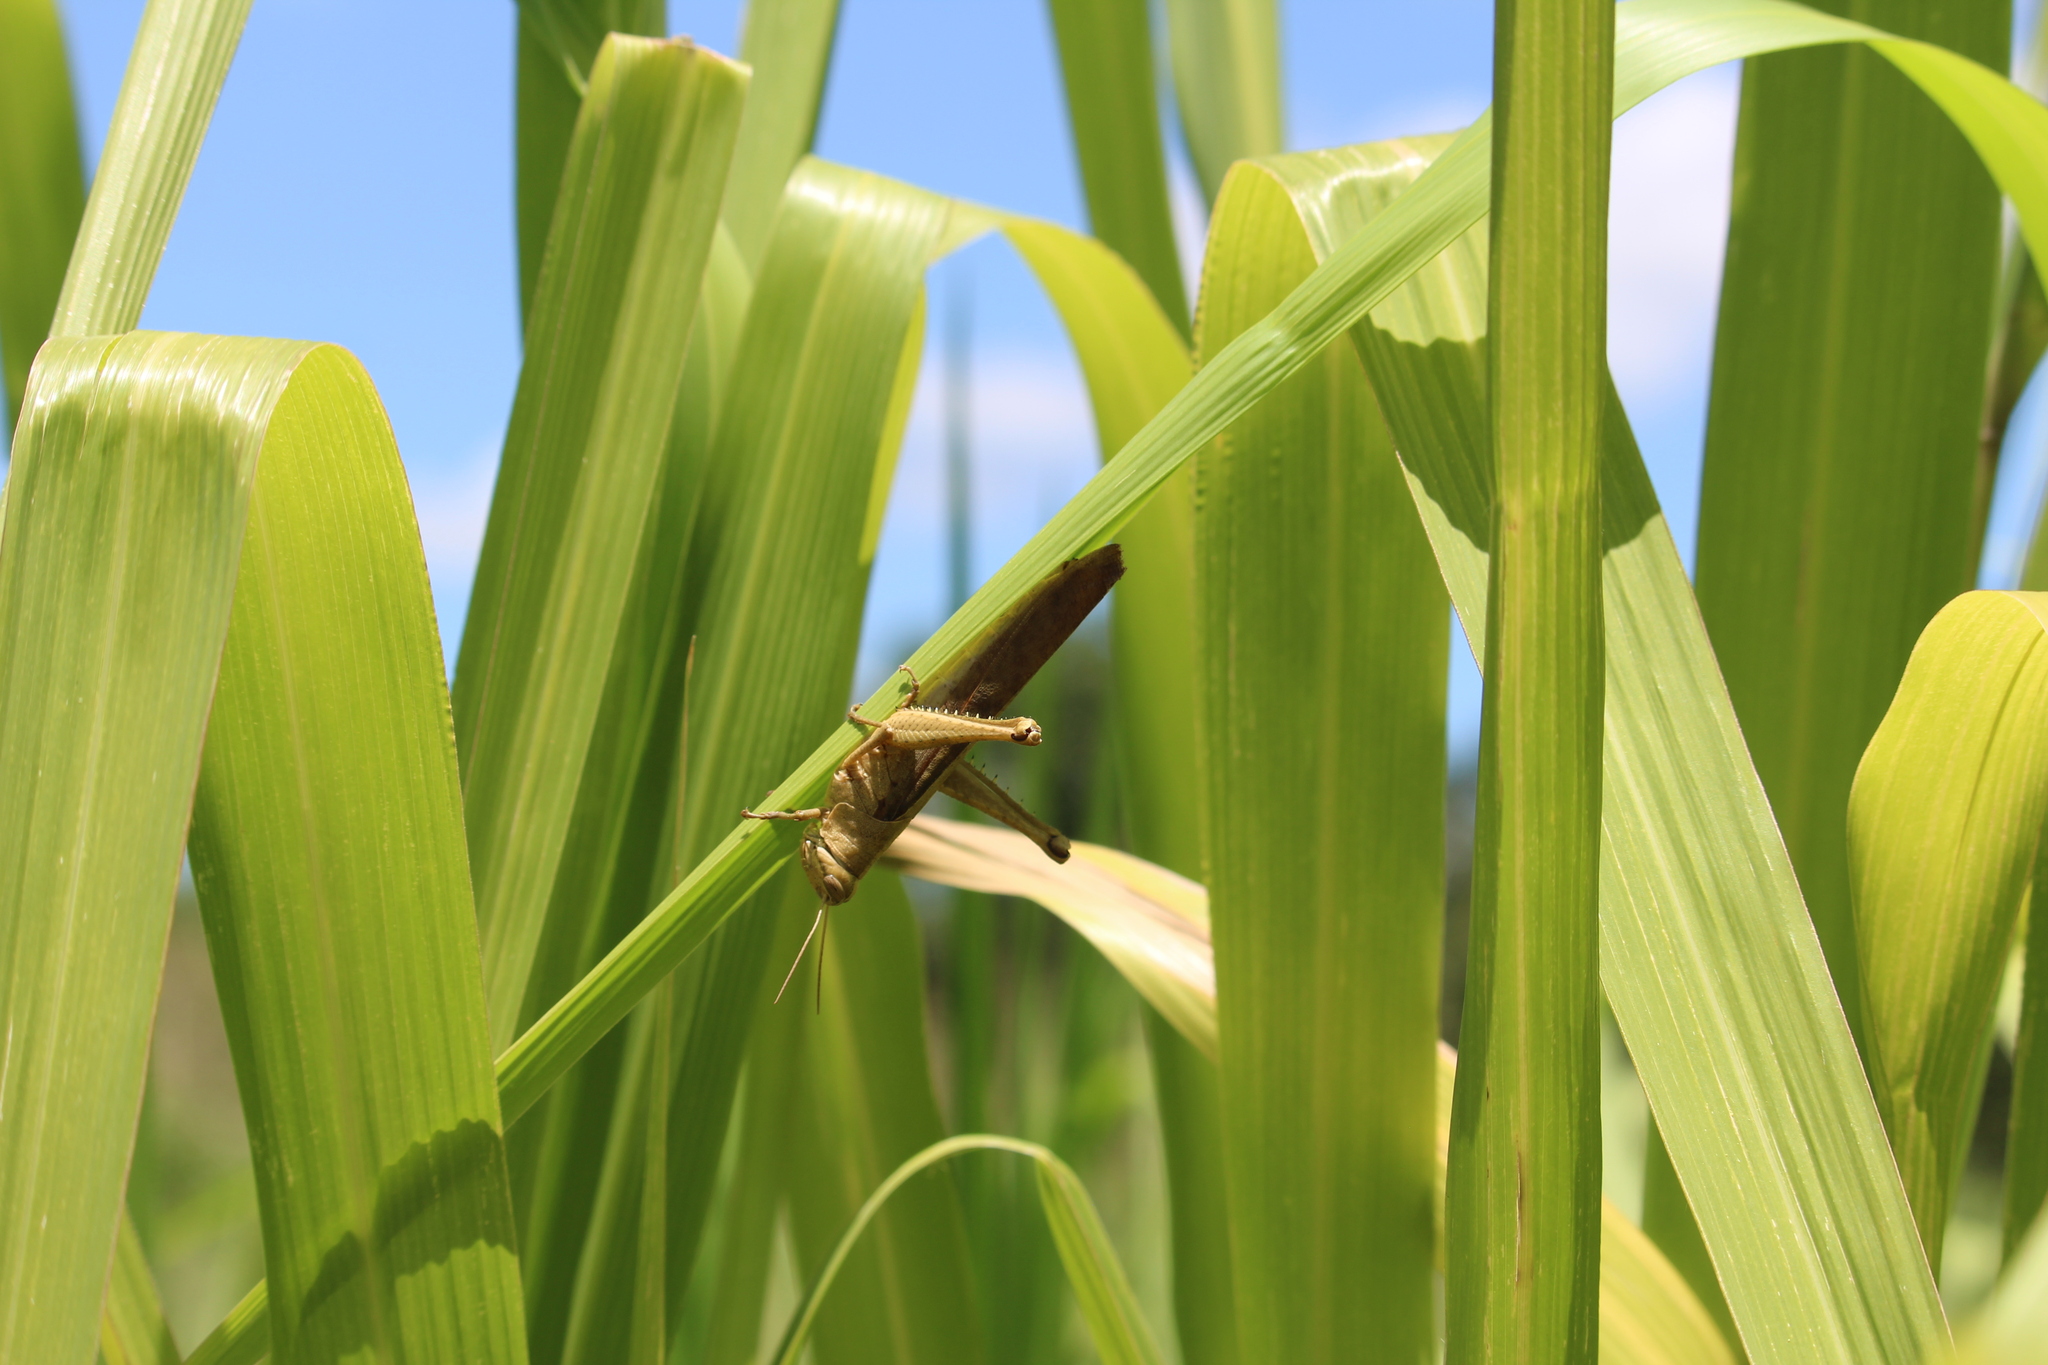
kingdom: Animalia
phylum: Arthropoda
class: Insecta
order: Orthoptera
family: Acrididae
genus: Schistocerca
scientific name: Schistocerca nitens
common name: Vagrant grasshopper
